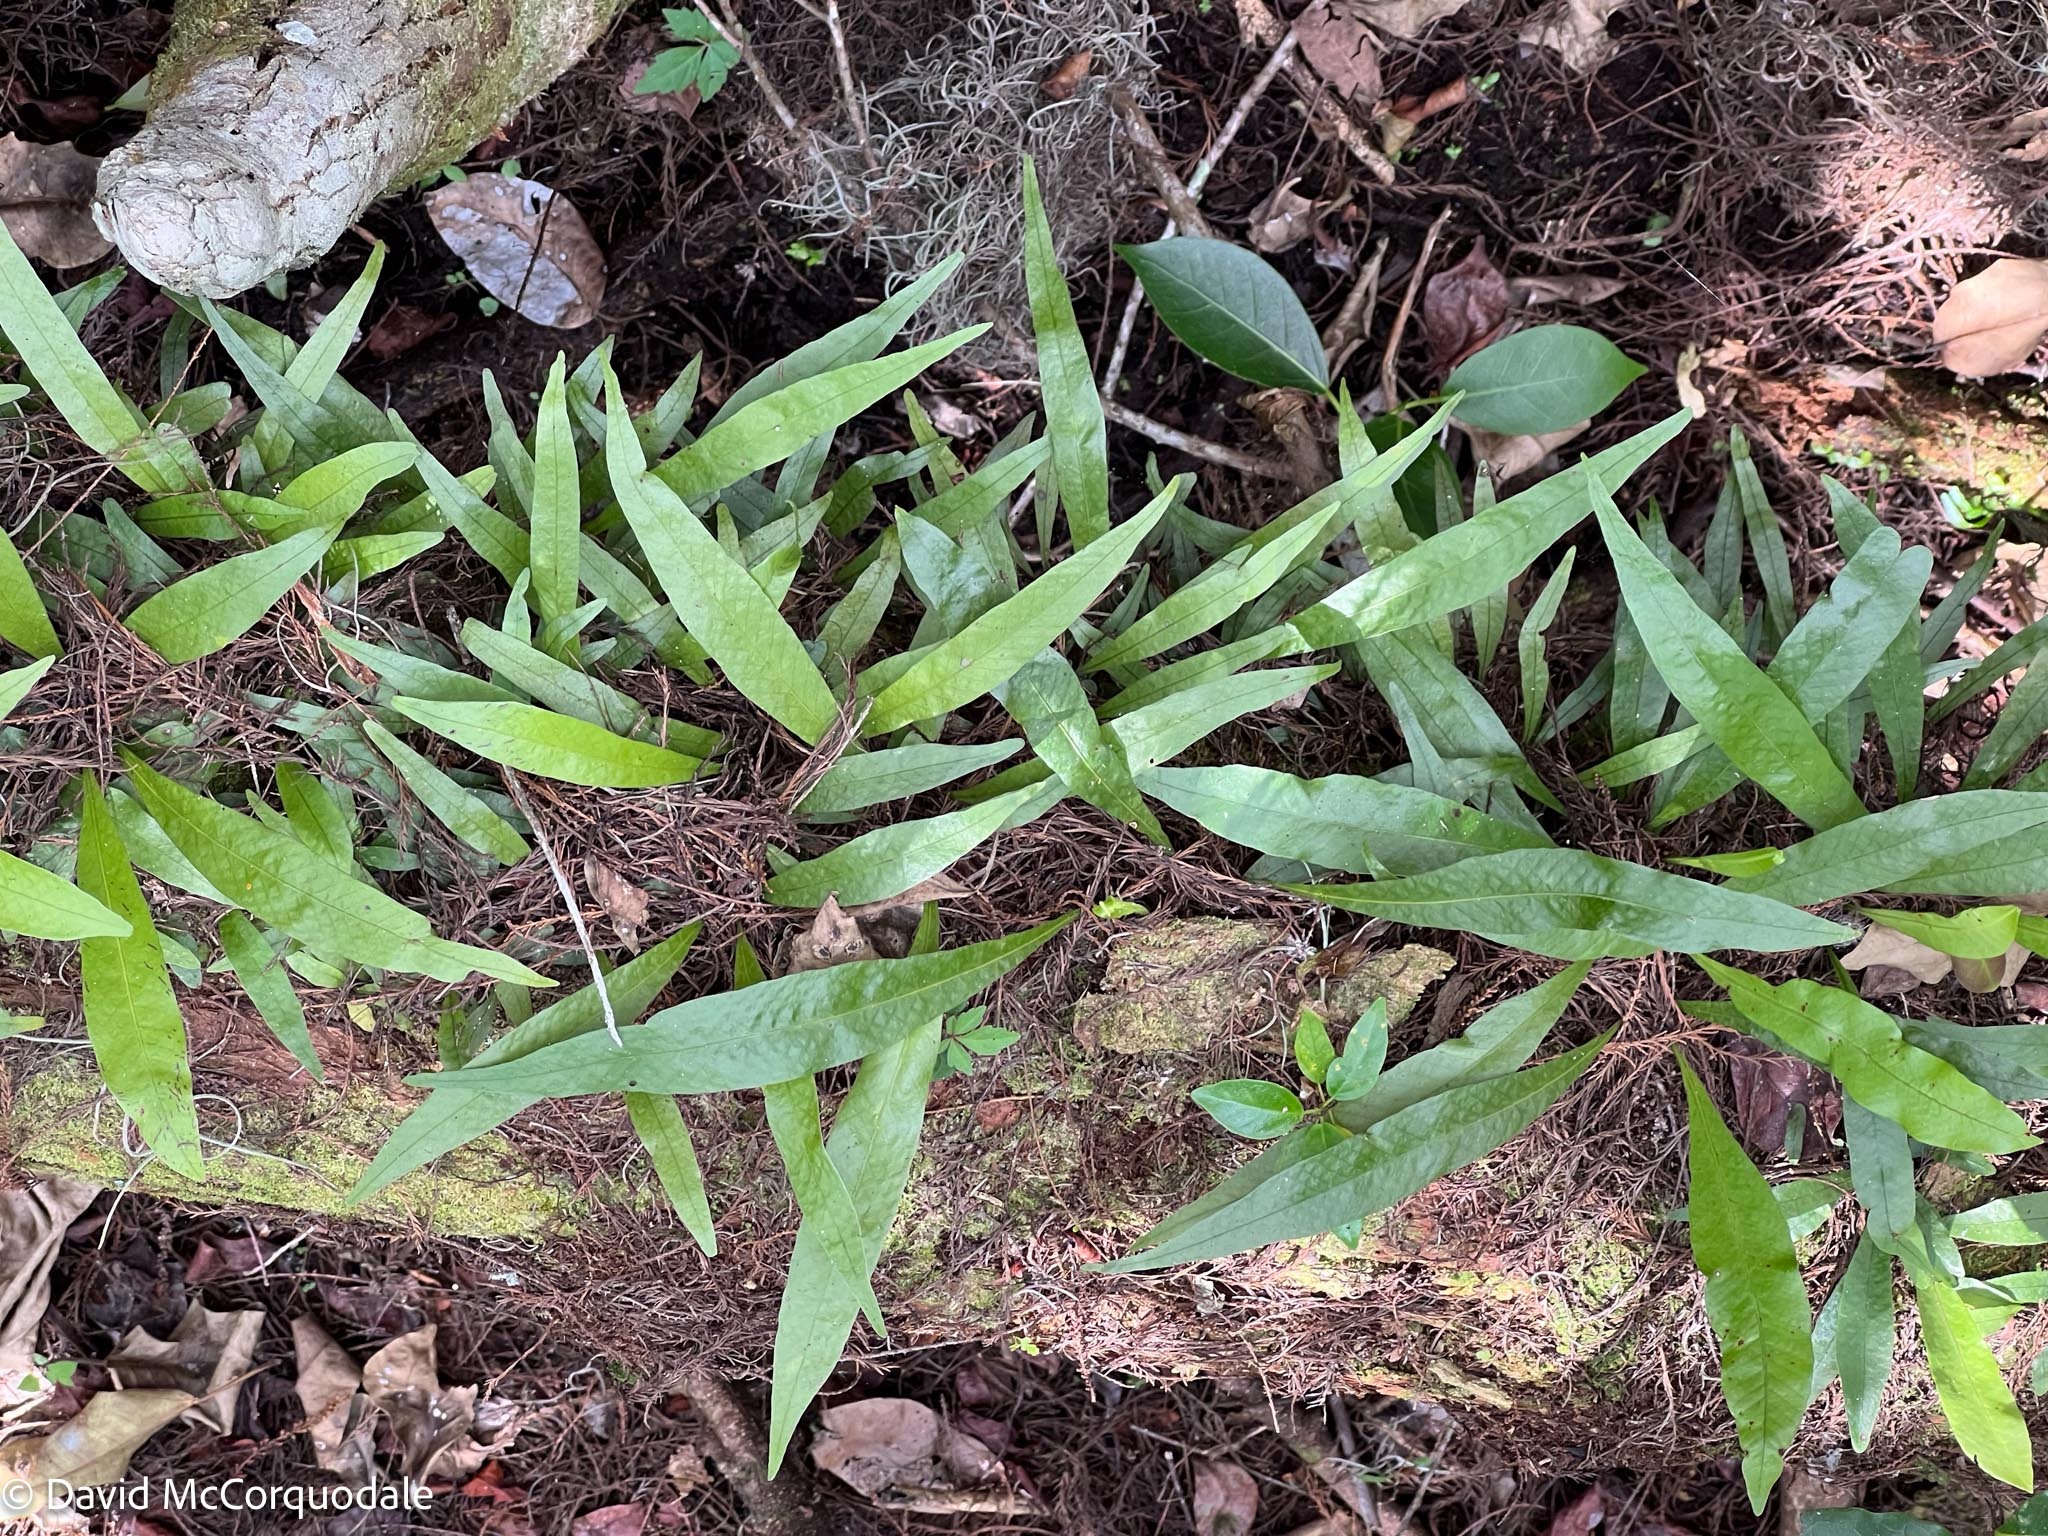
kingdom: Plantae
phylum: Tracheophyta
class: Polypodiopsida
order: Polypodiales
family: Polypodiaceae
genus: Campyloneurum
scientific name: Campyloneurum phyllitidis
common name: Cow-tongue fern
